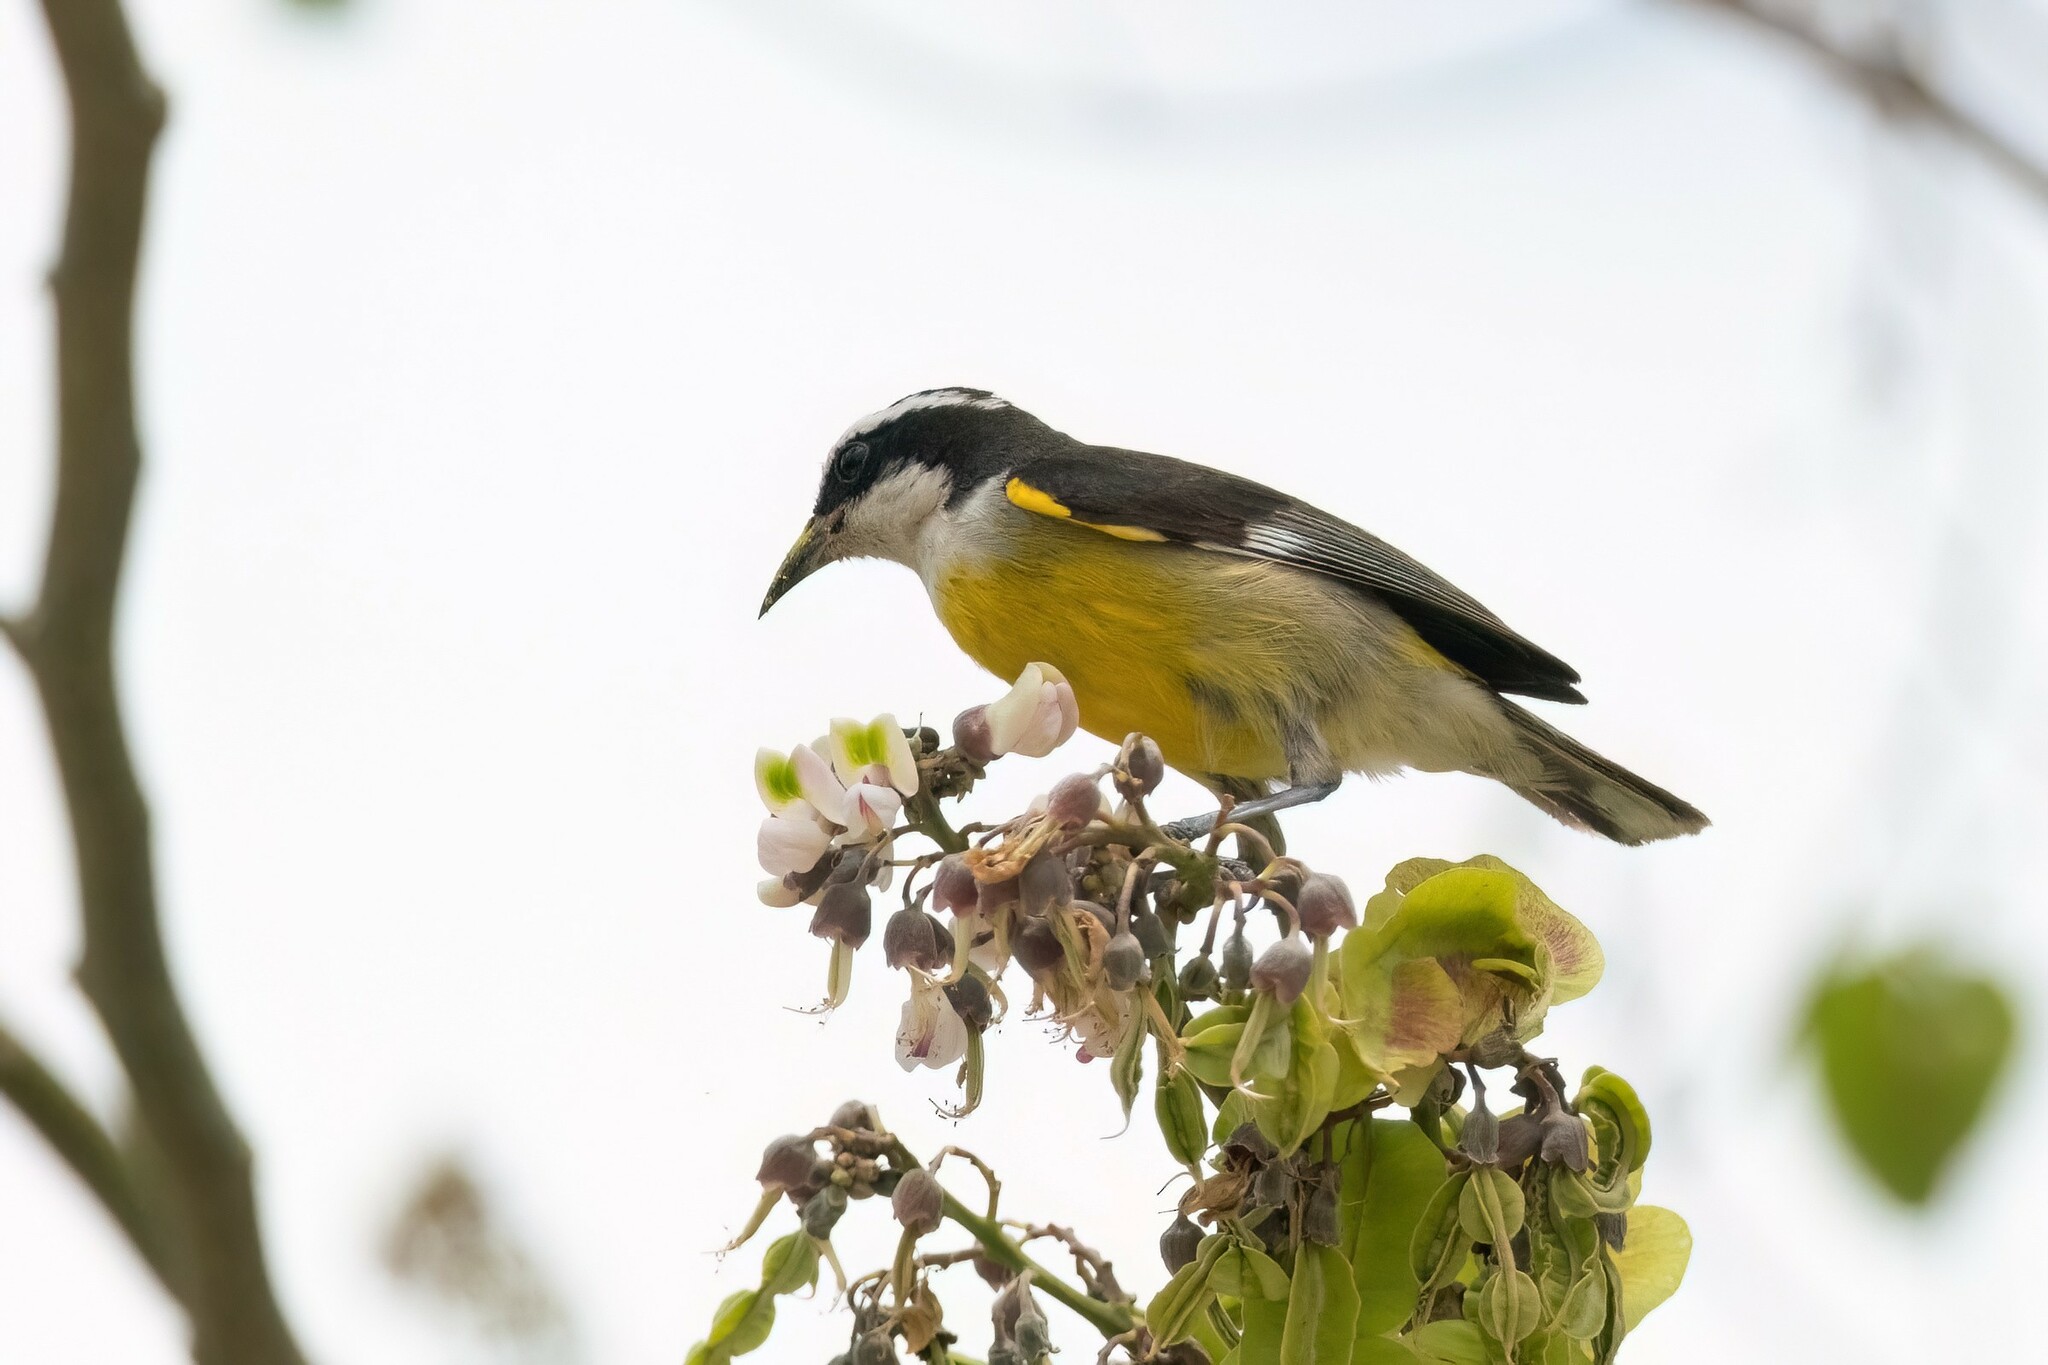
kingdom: Animalia
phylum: Chordata
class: Aves
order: Passeriformes
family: Thraupidae
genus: Coereba
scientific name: Coereba flaveola
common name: Bananaquit
